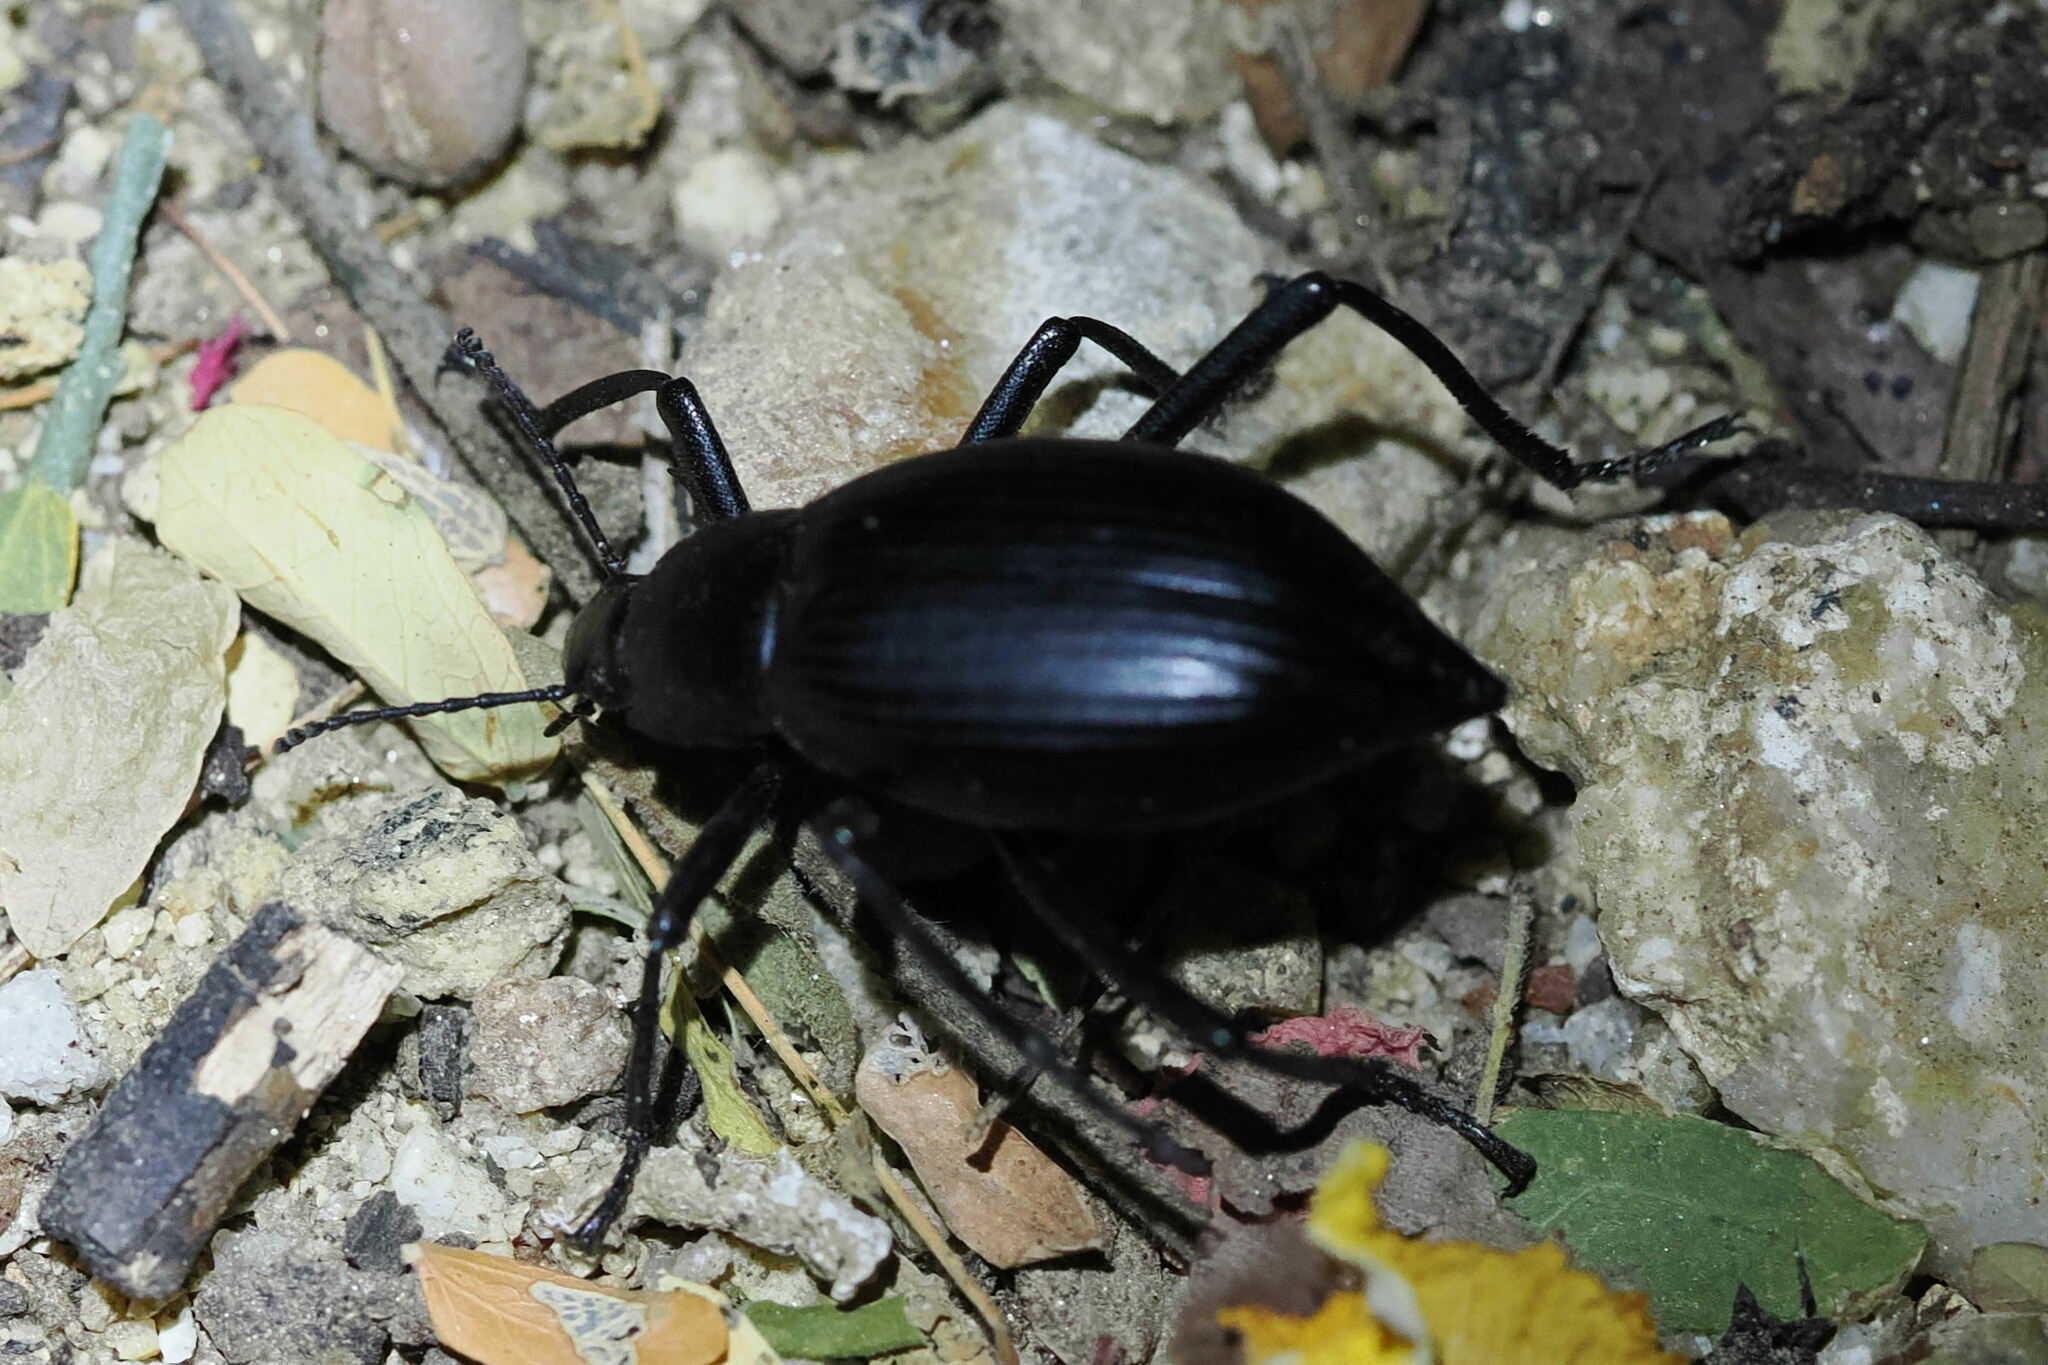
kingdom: Animalia
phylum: Arthropoda
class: Insecta
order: Coleoptera
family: Tenebrionidae
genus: Eleodes
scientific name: Eleodes mexicana
